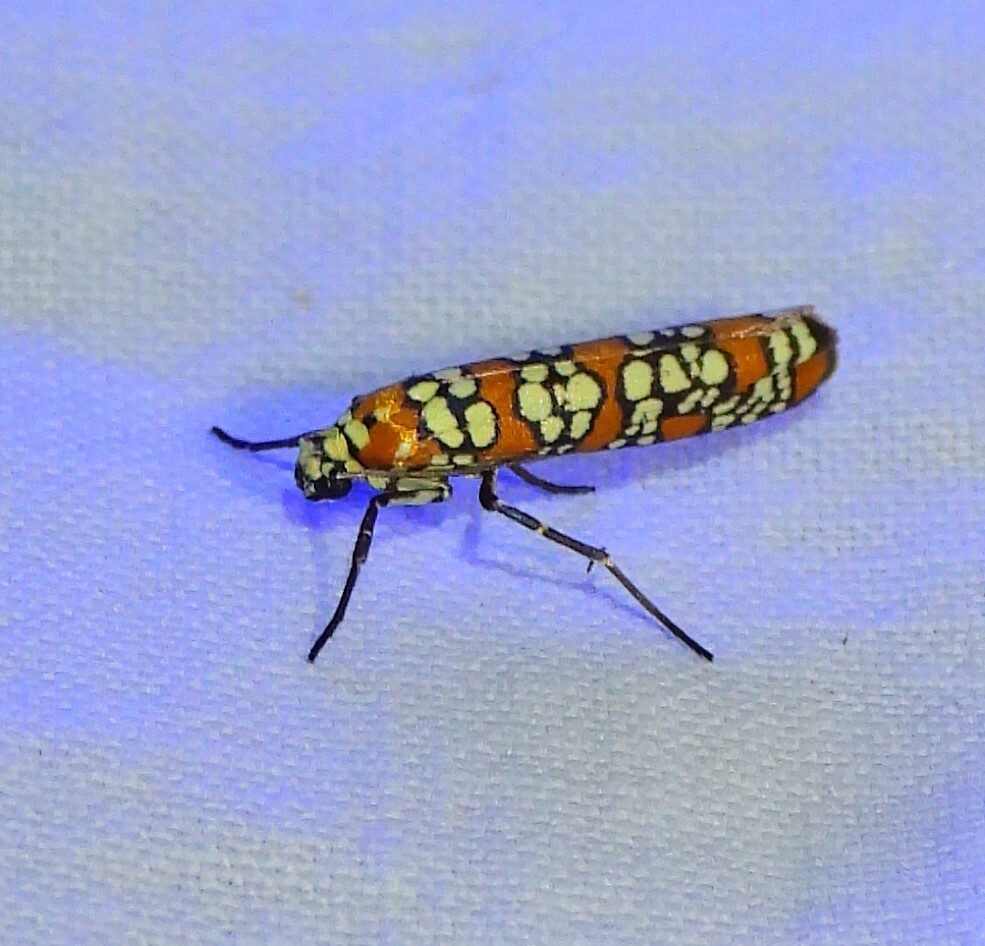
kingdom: Animalia
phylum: Arthropoda
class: Insecta
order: Lepidoptera
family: Attevidae
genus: Atteva
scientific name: Atteva punctella
